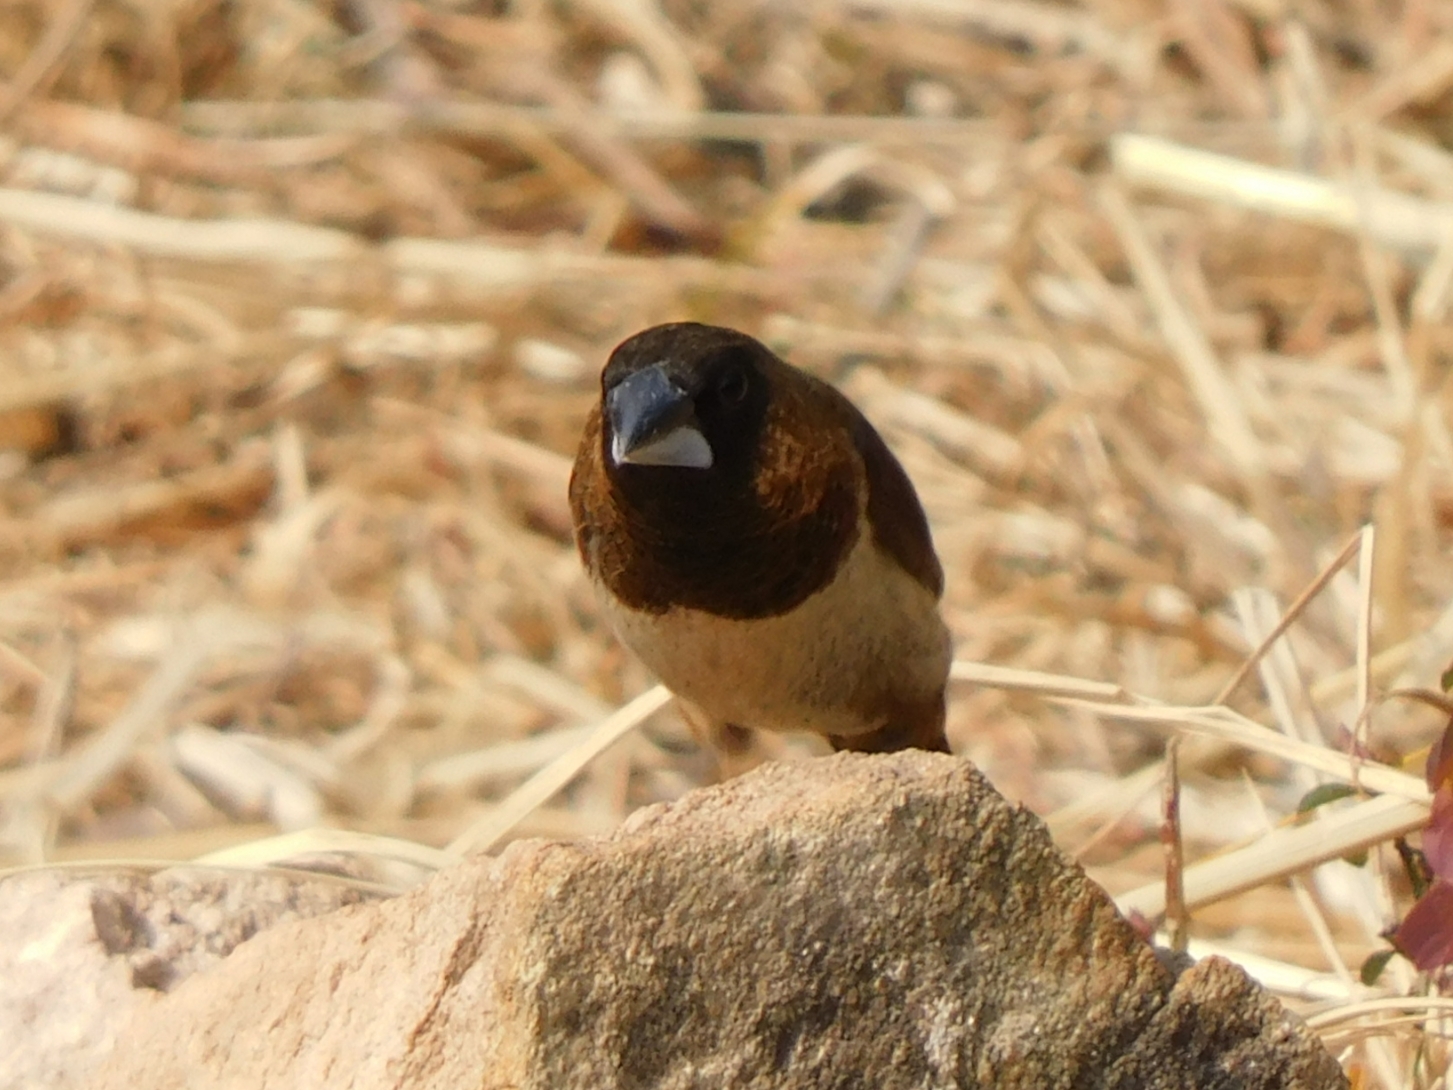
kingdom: Animalia
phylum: Chordata
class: Aves
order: Passeriformes
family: Estrildidae
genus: Lonchura
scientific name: Lonchura striata
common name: White-rumped munia
